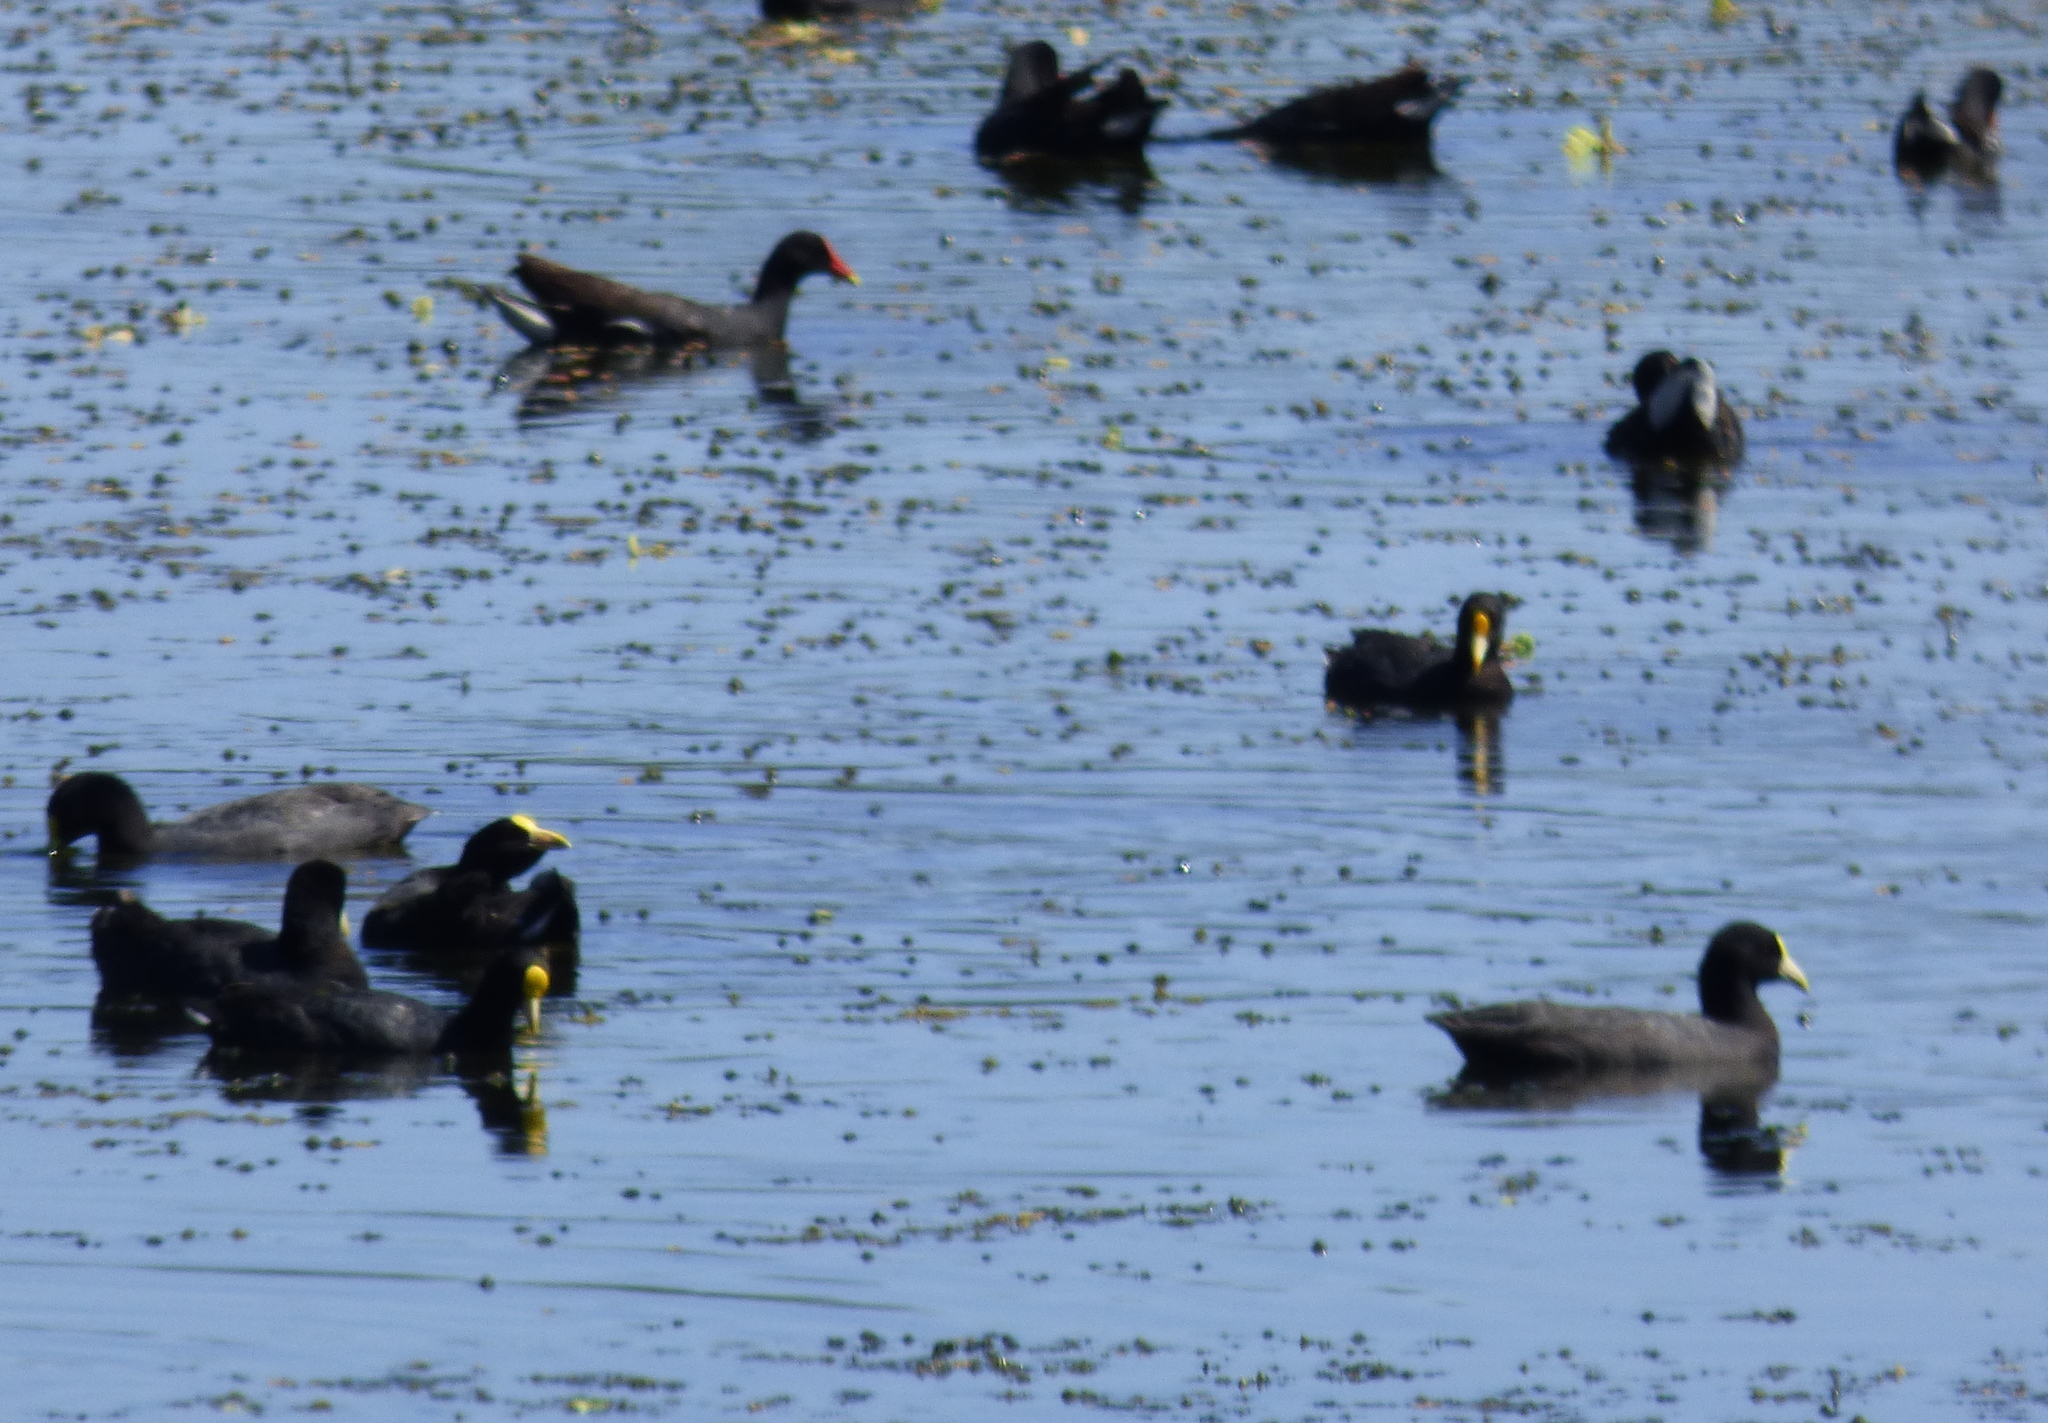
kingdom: Animalia
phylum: Chordata
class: Aves
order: Gruiformes
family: Rallidae
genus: Fulica
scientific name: Fulica leucoptera
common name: White-winged coot
